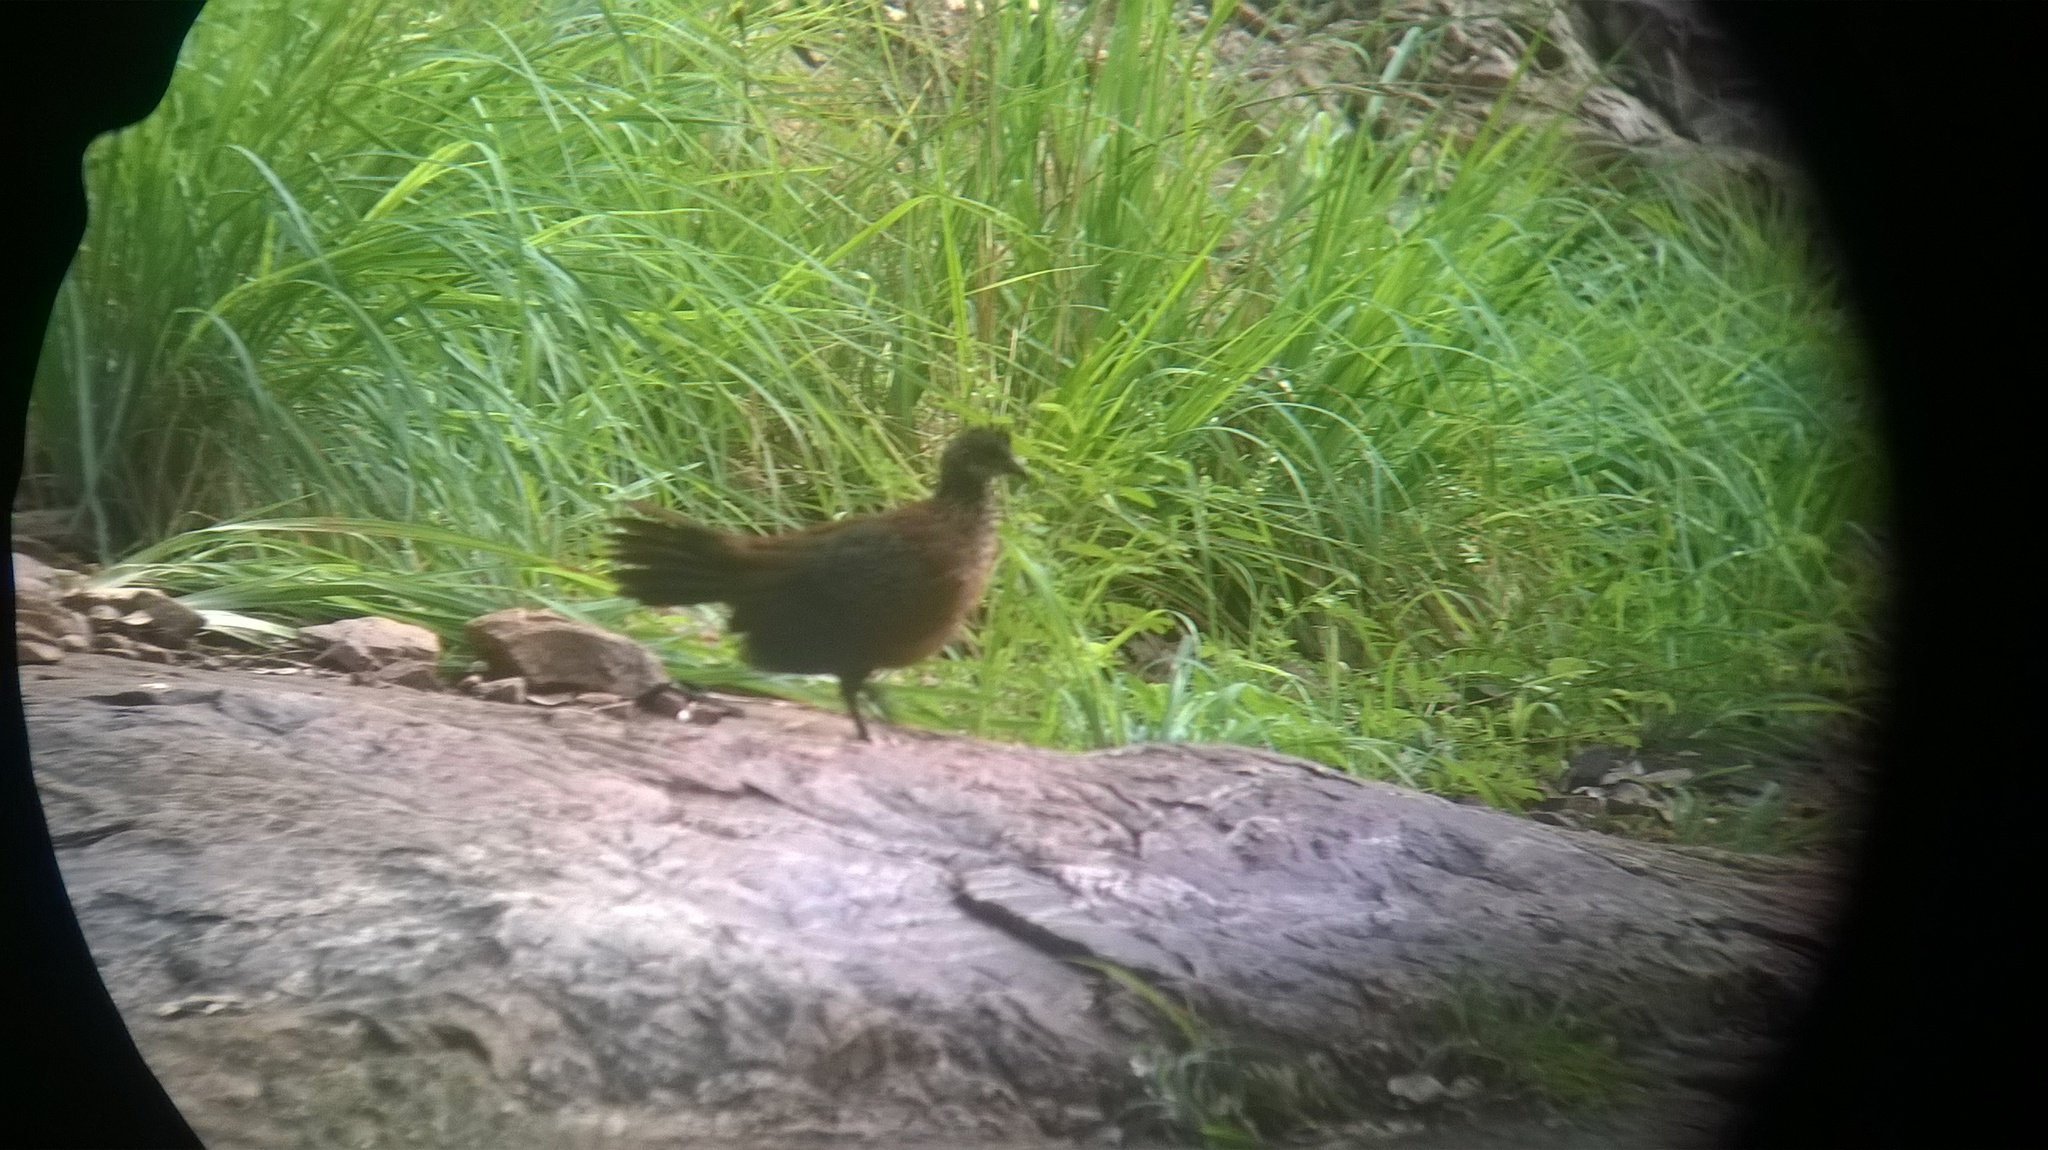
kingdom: Animalia
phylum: Chordata
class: Aves
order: Galliformes
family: Phasianidae
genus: Galloperdix
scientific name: Galloperdix lunulata
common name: Painted spurfowl
